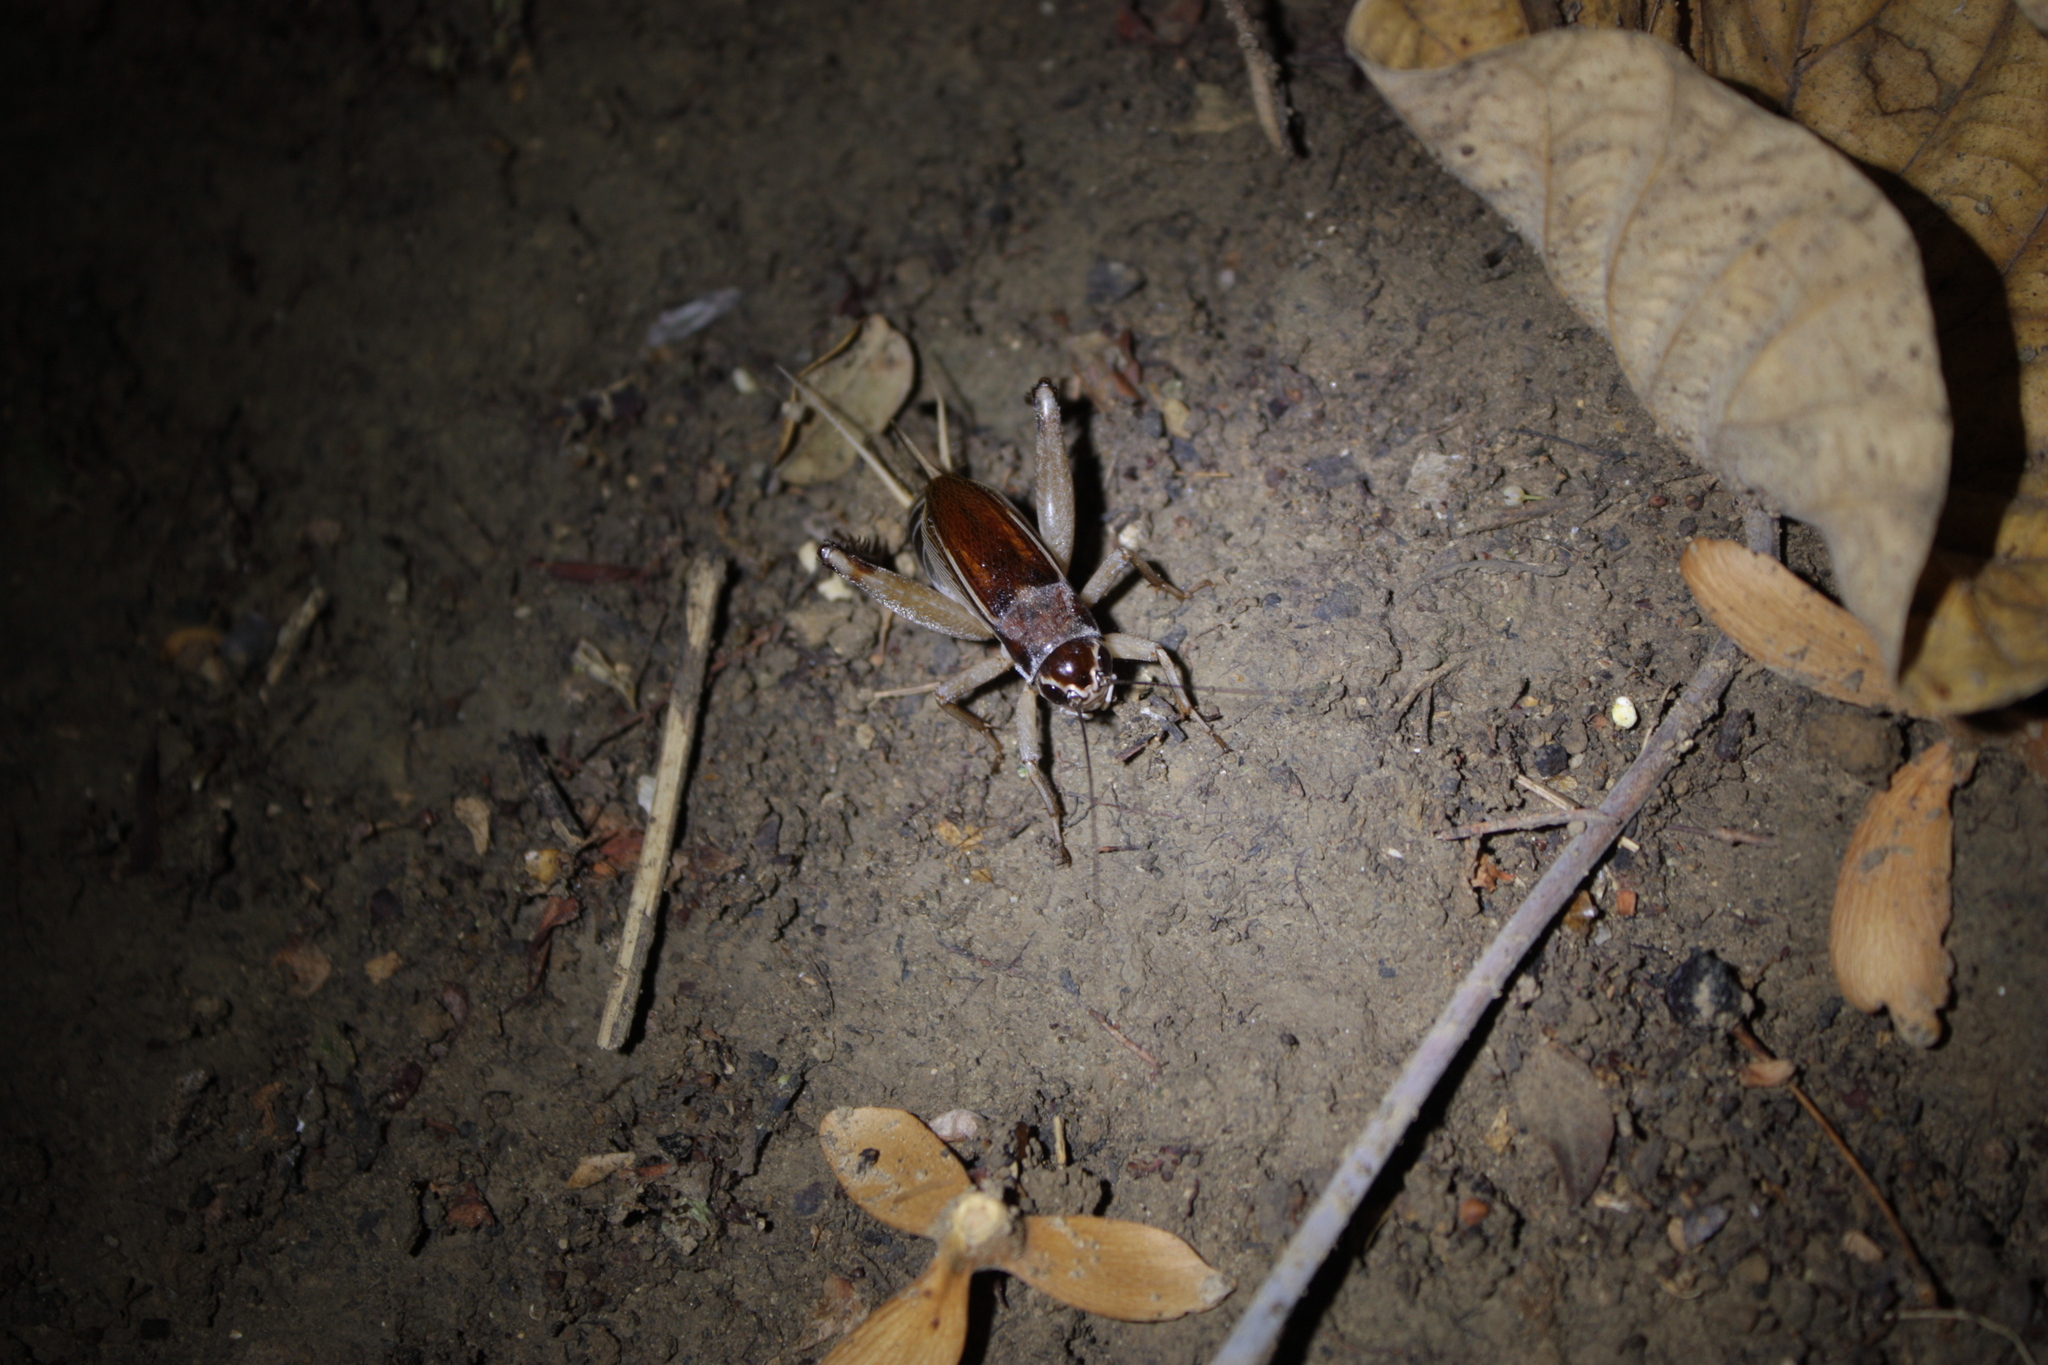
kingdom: Animalia
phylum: Arthropoda
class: Insecta
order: Orthoptera
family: Gryllidae
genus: Teleogryllus
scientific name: Teleogryllus mitratus
